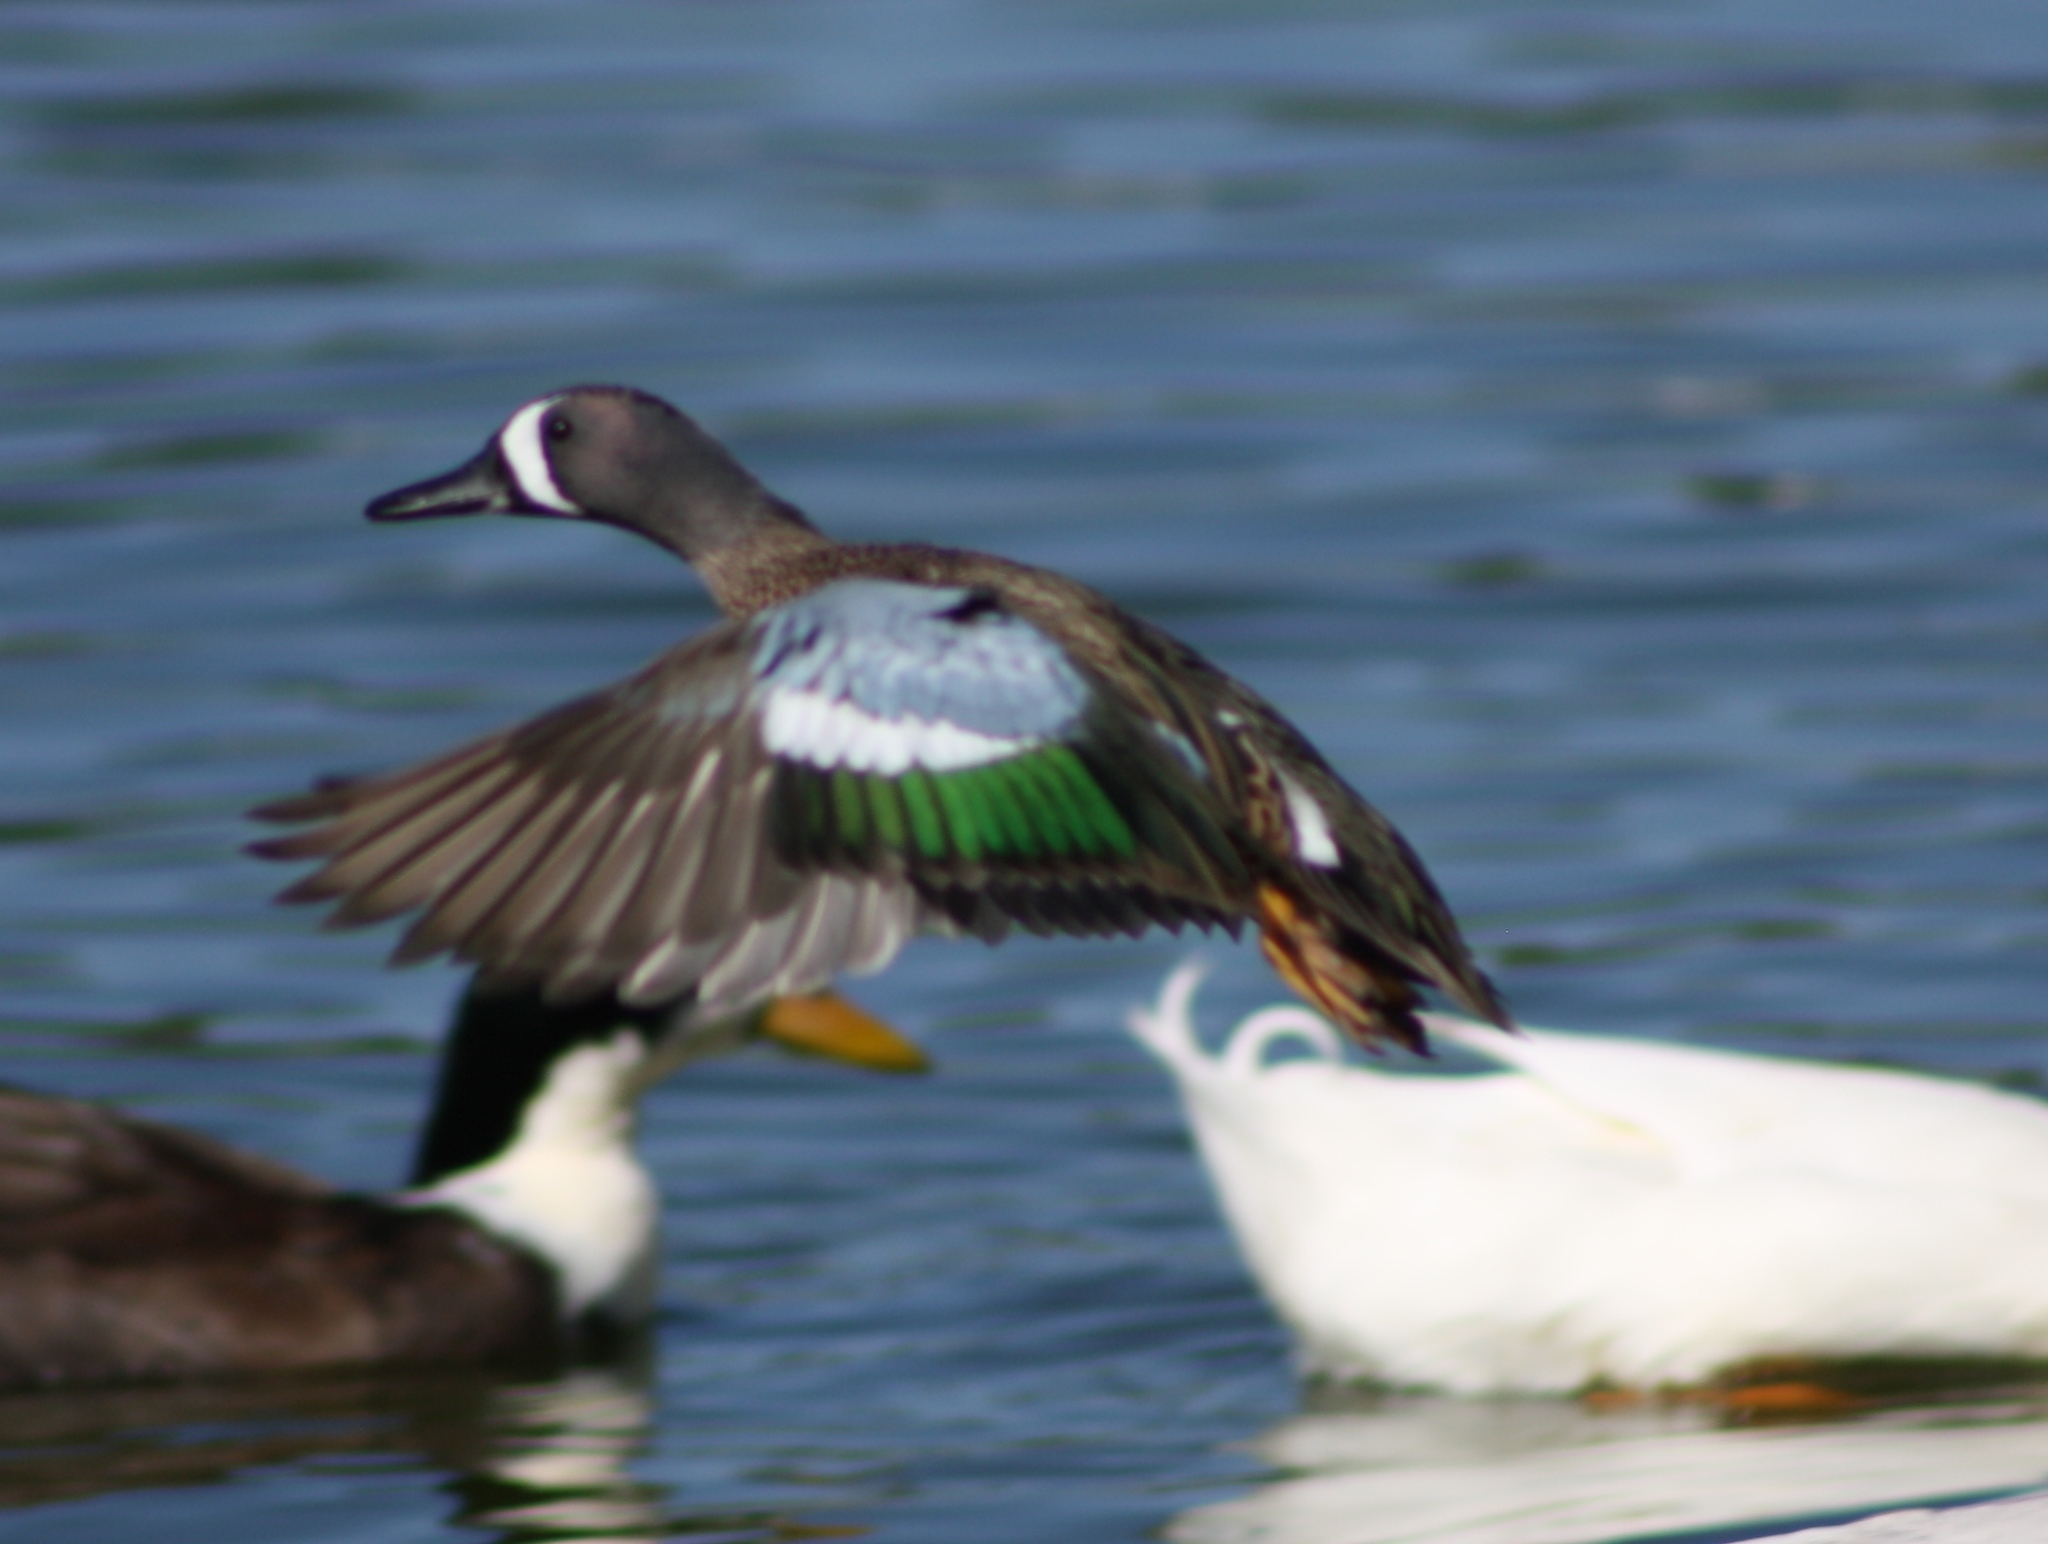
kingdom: Animalia
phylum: Chordata
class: Aves
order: Anseriformes
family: Anatidae
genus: Spatula
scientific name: Spatula discors
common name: Blue-winged teal
